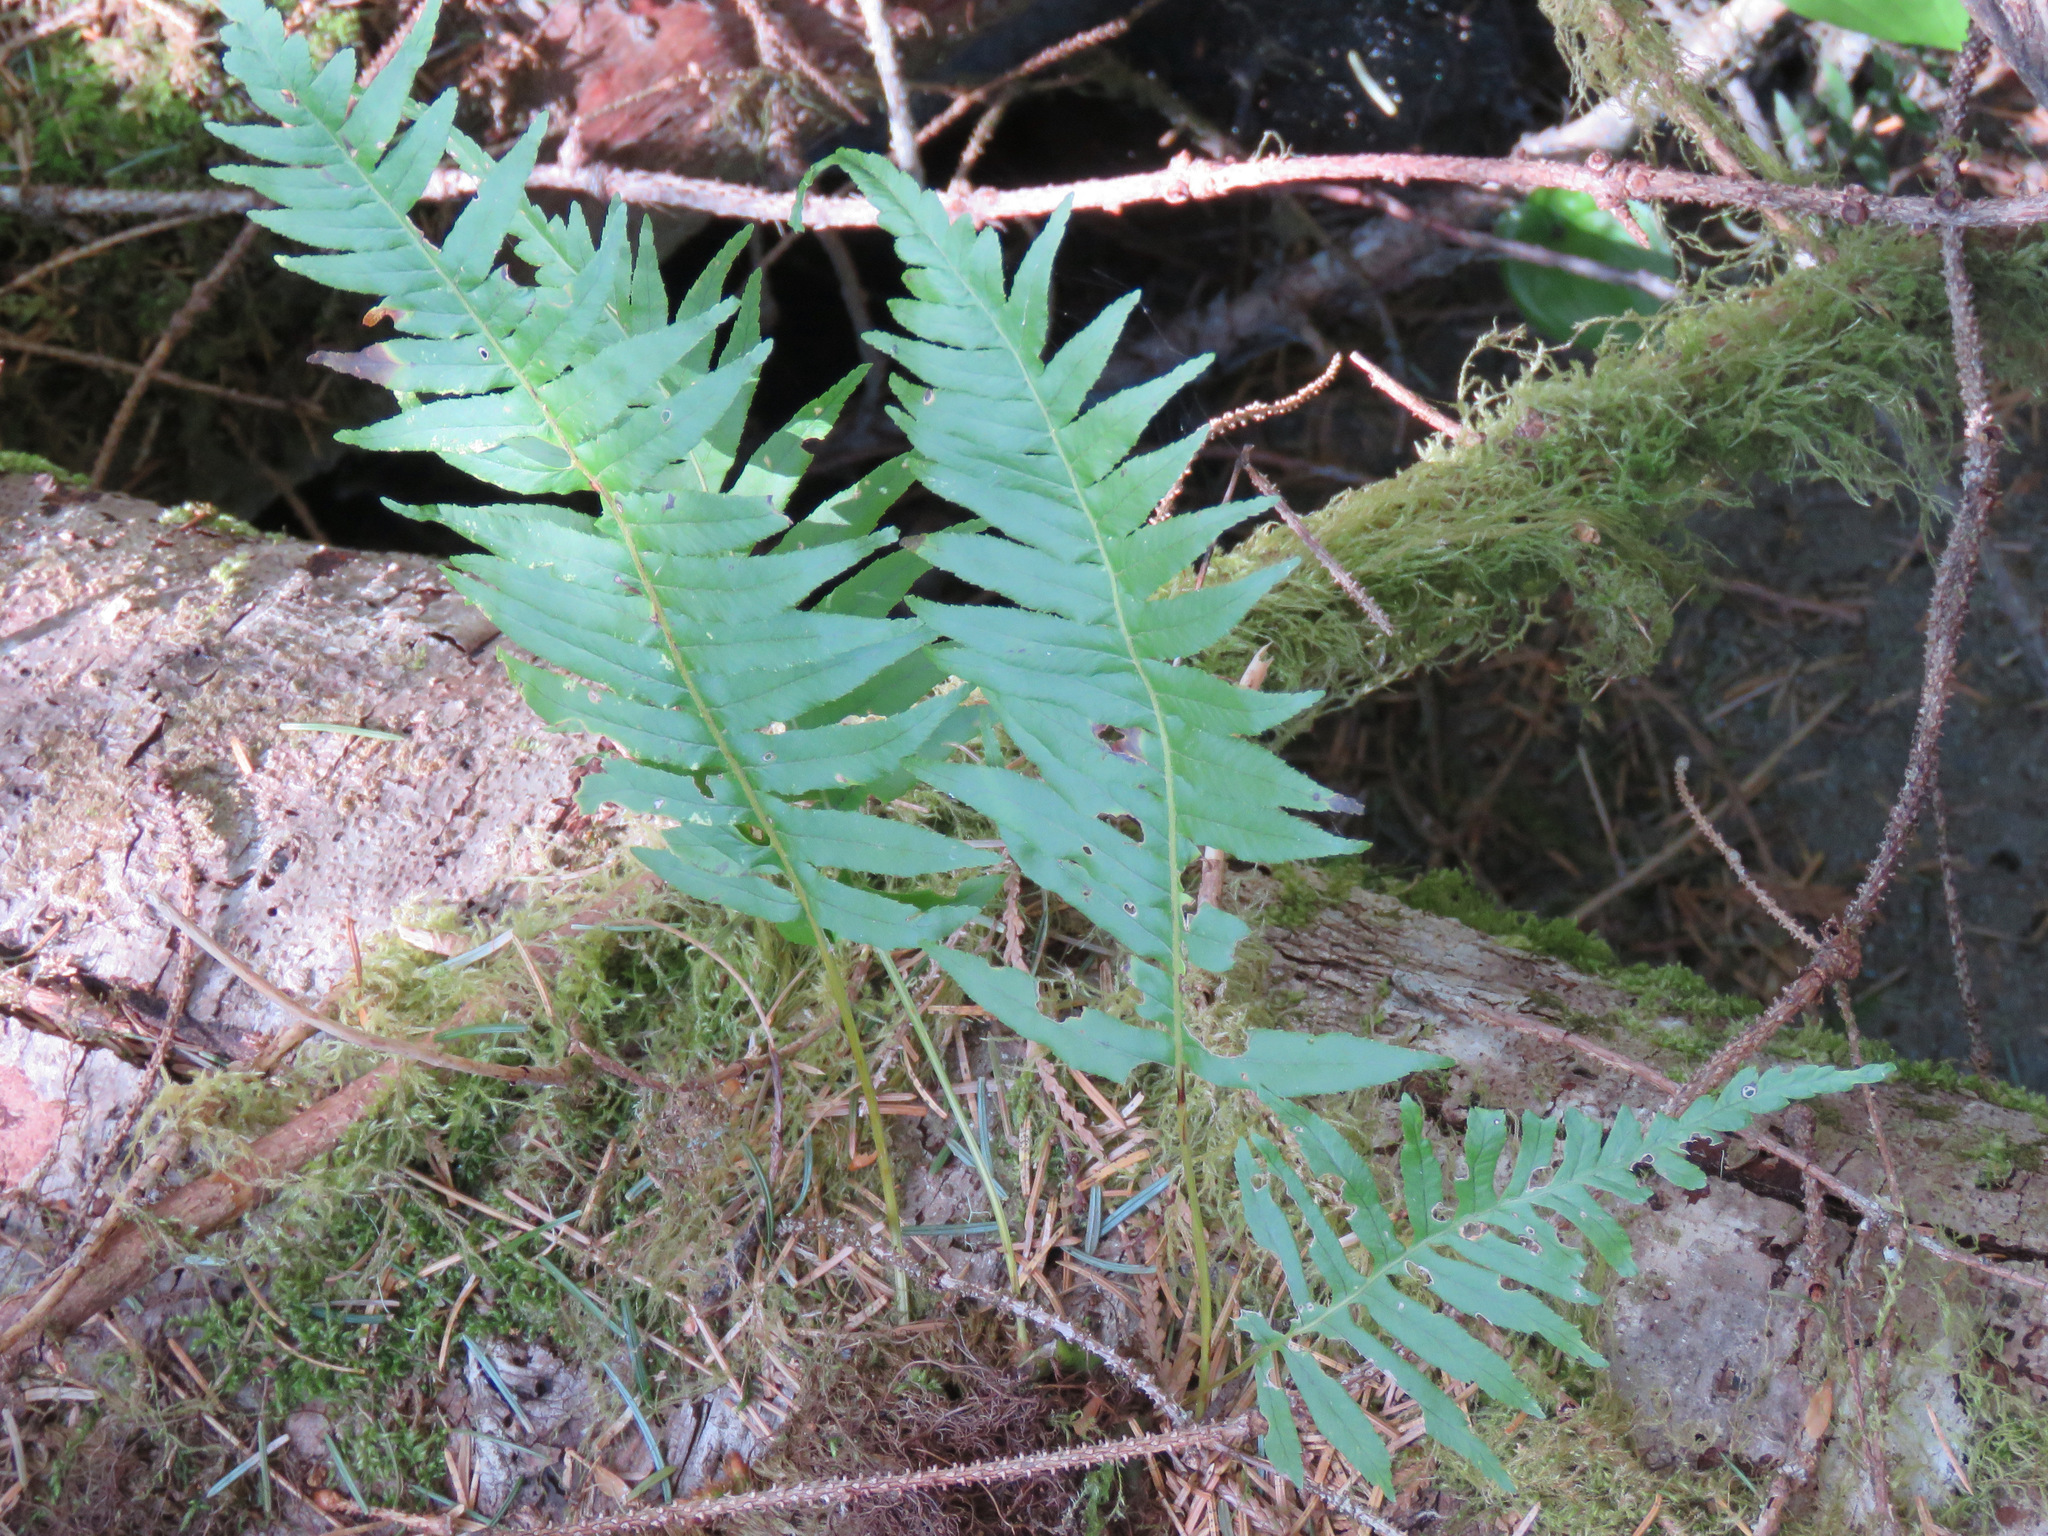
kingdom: Plantae
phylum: Tracheophyta
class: Polypodiopsida
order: Polypodiales
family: Polypodiaceae
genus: Polypodium
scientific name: Polypodium glycyrrhiza
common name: Licorice fern
